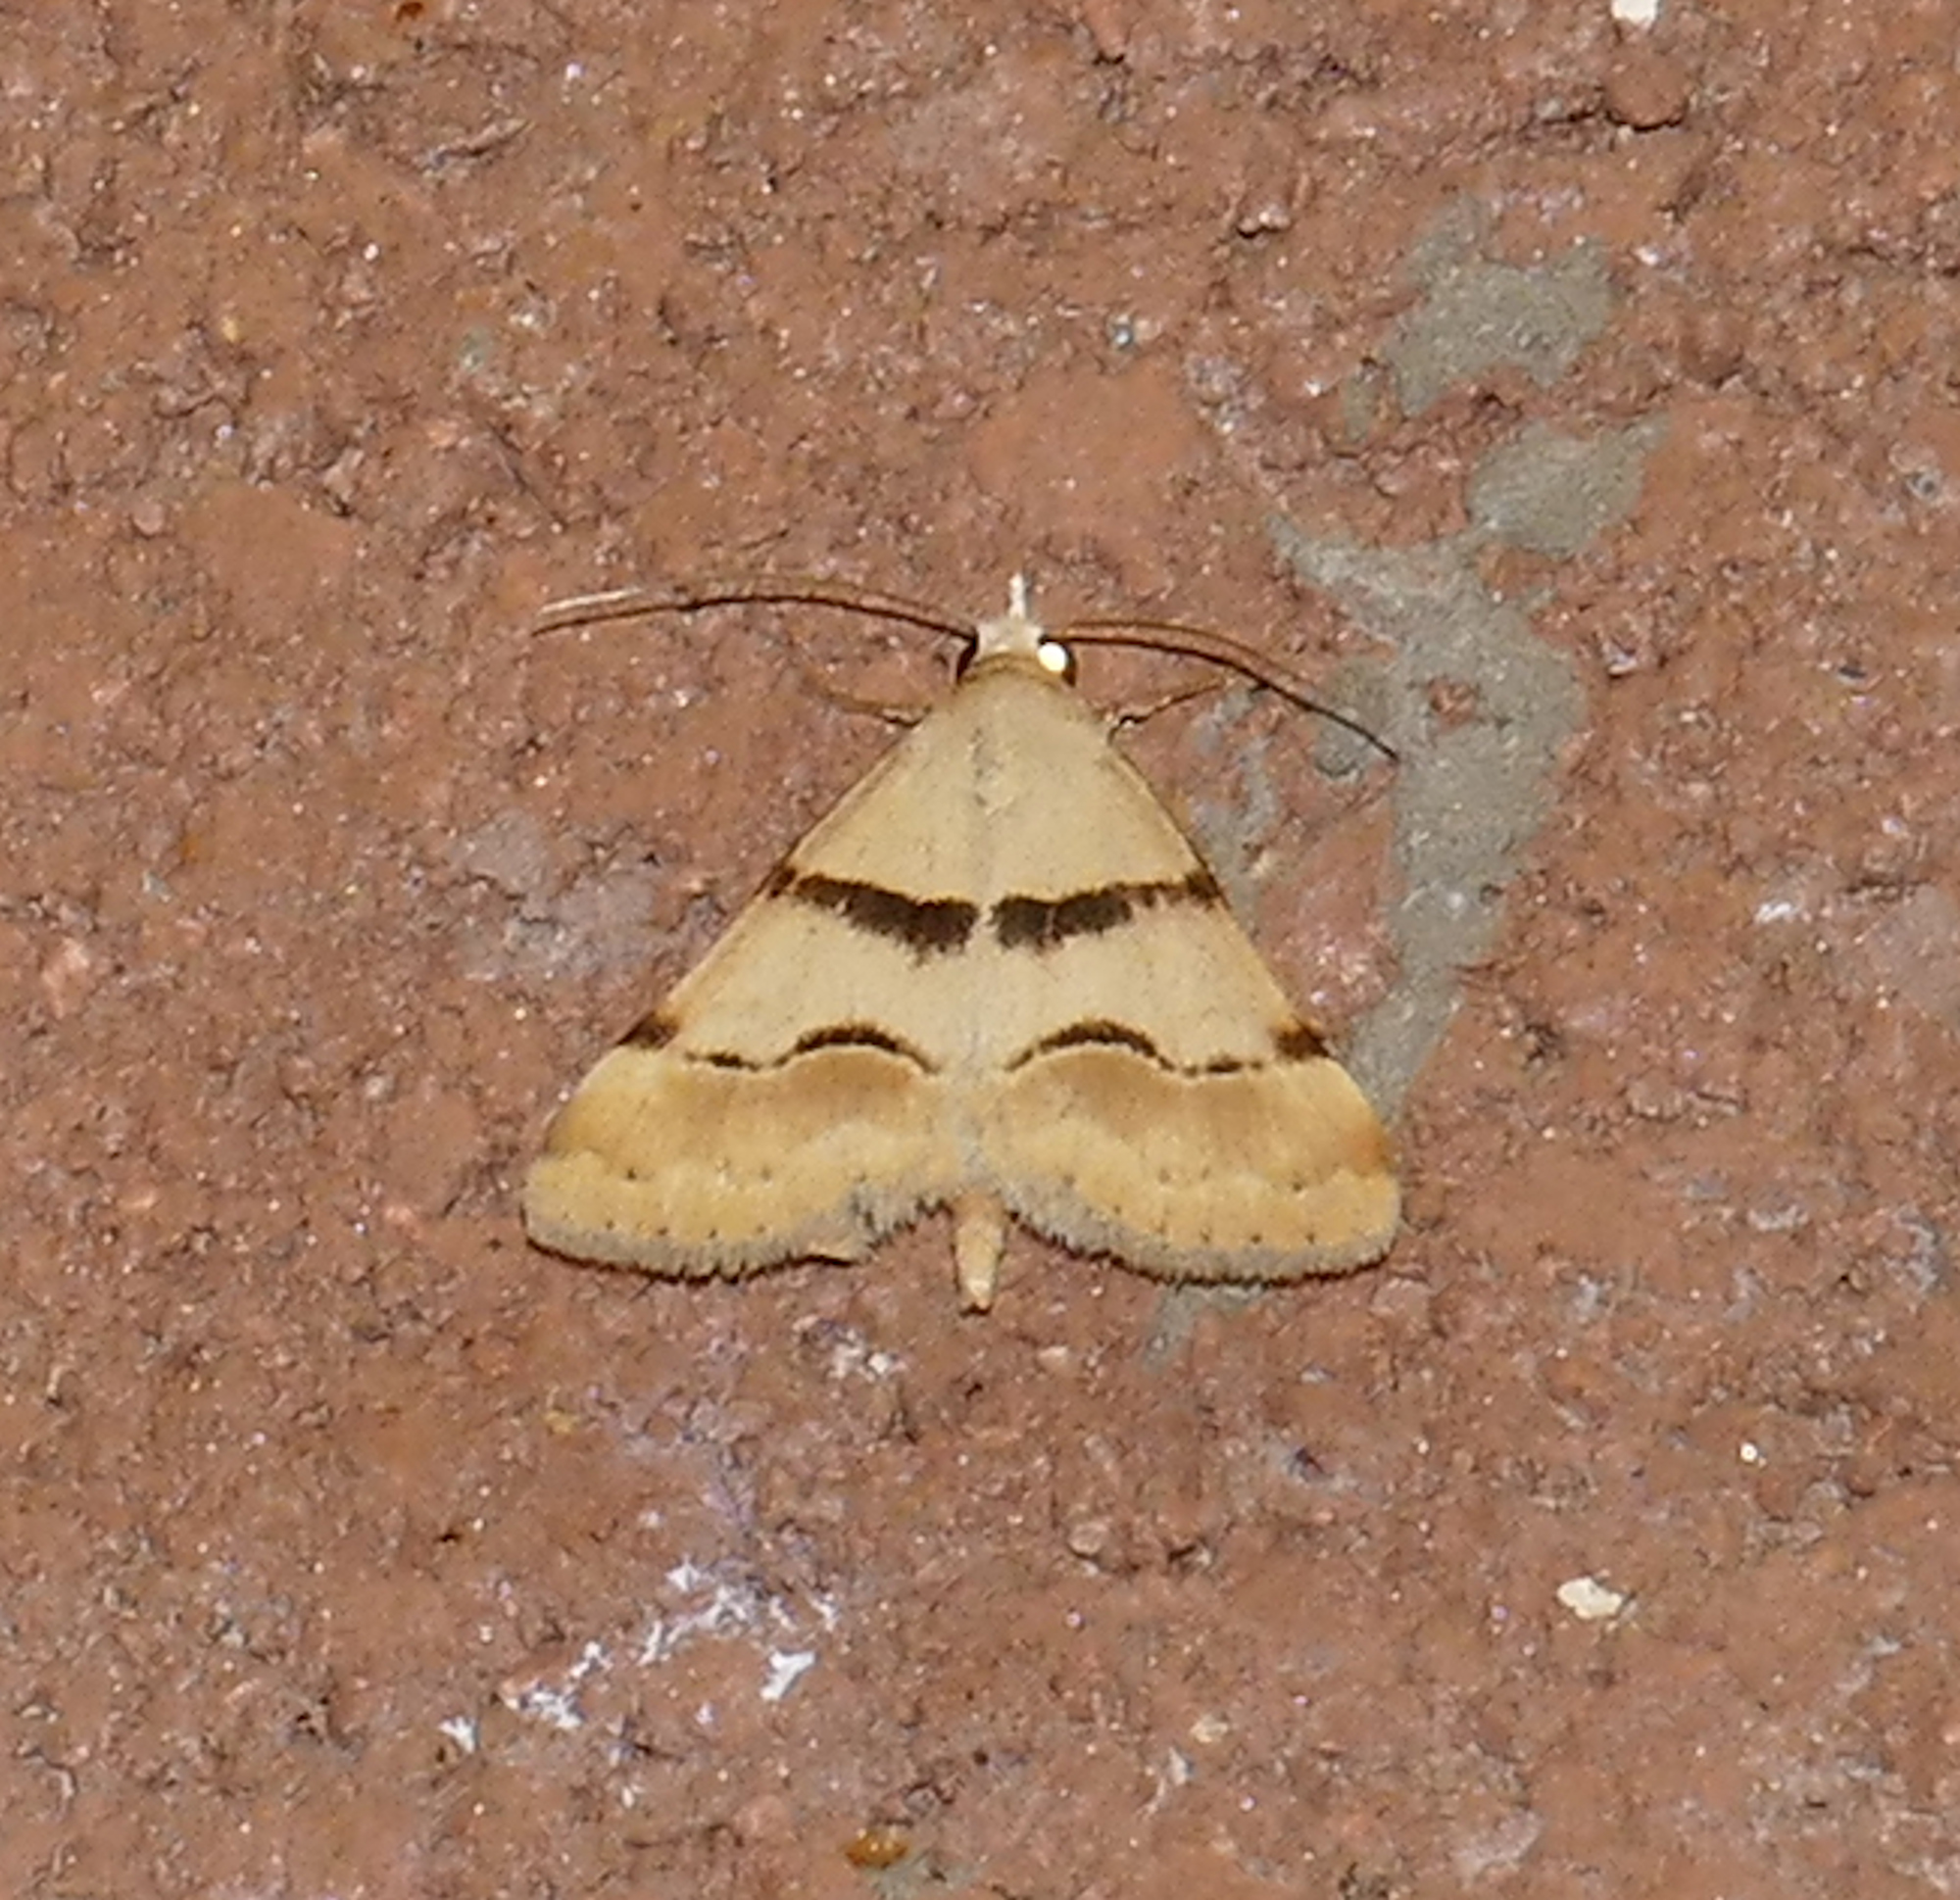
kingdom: Animalia
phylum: Arthropoda
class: Insecta
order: Lepidoptera
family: Erebidae
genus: Hemeroplanis
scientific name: Hemeroplanis incusalis
